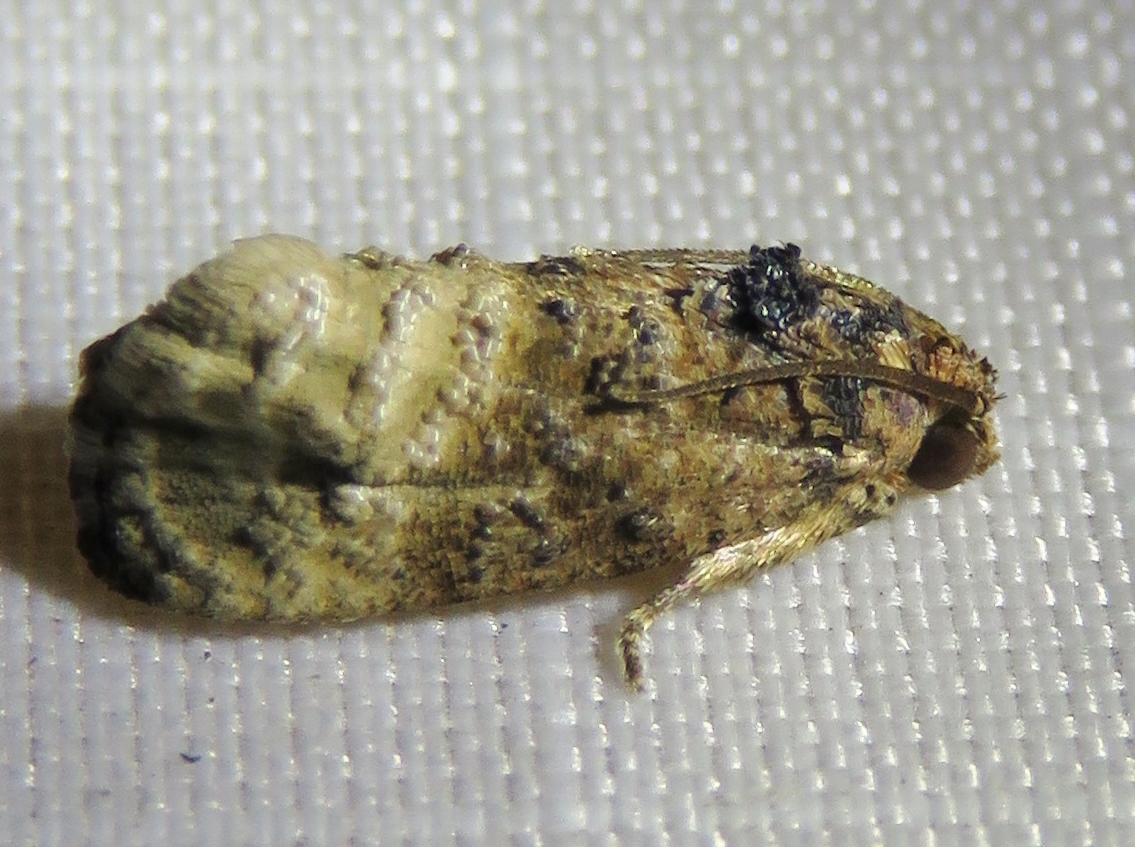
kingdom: Animalia
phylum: Arthropoda
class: Insecta
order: Lepidoptera
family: Tortricidae
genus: Ecdytolopha
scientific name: Ecdytolopha mana
